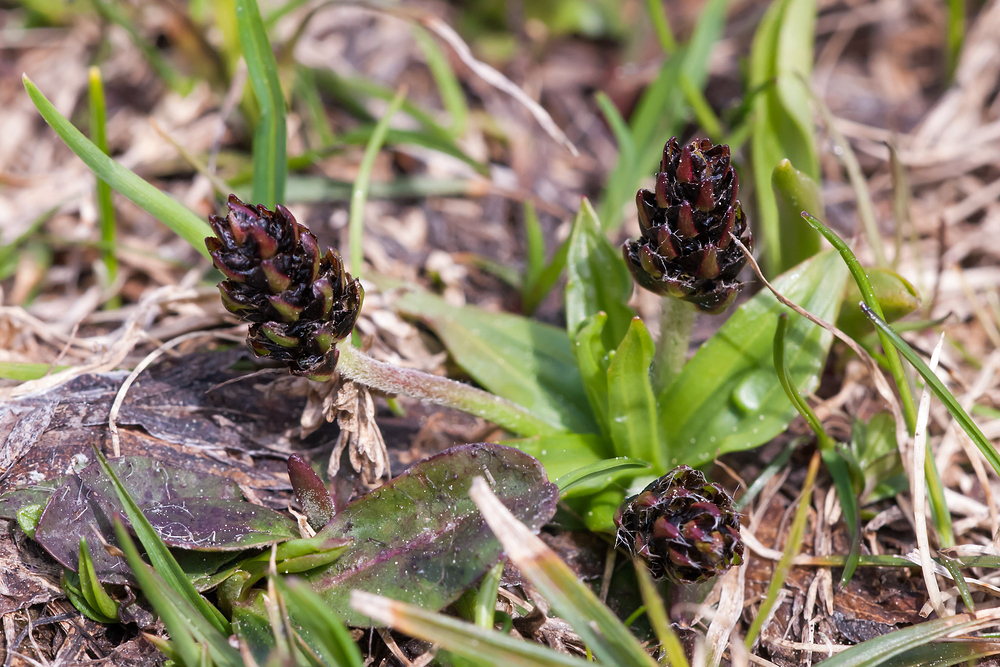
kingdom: Plantae
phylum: Tracheophyta
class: Magnoliopsida
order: Lamiales
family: Plantaginaceae
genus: Plantago
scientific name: Plantago atrata
